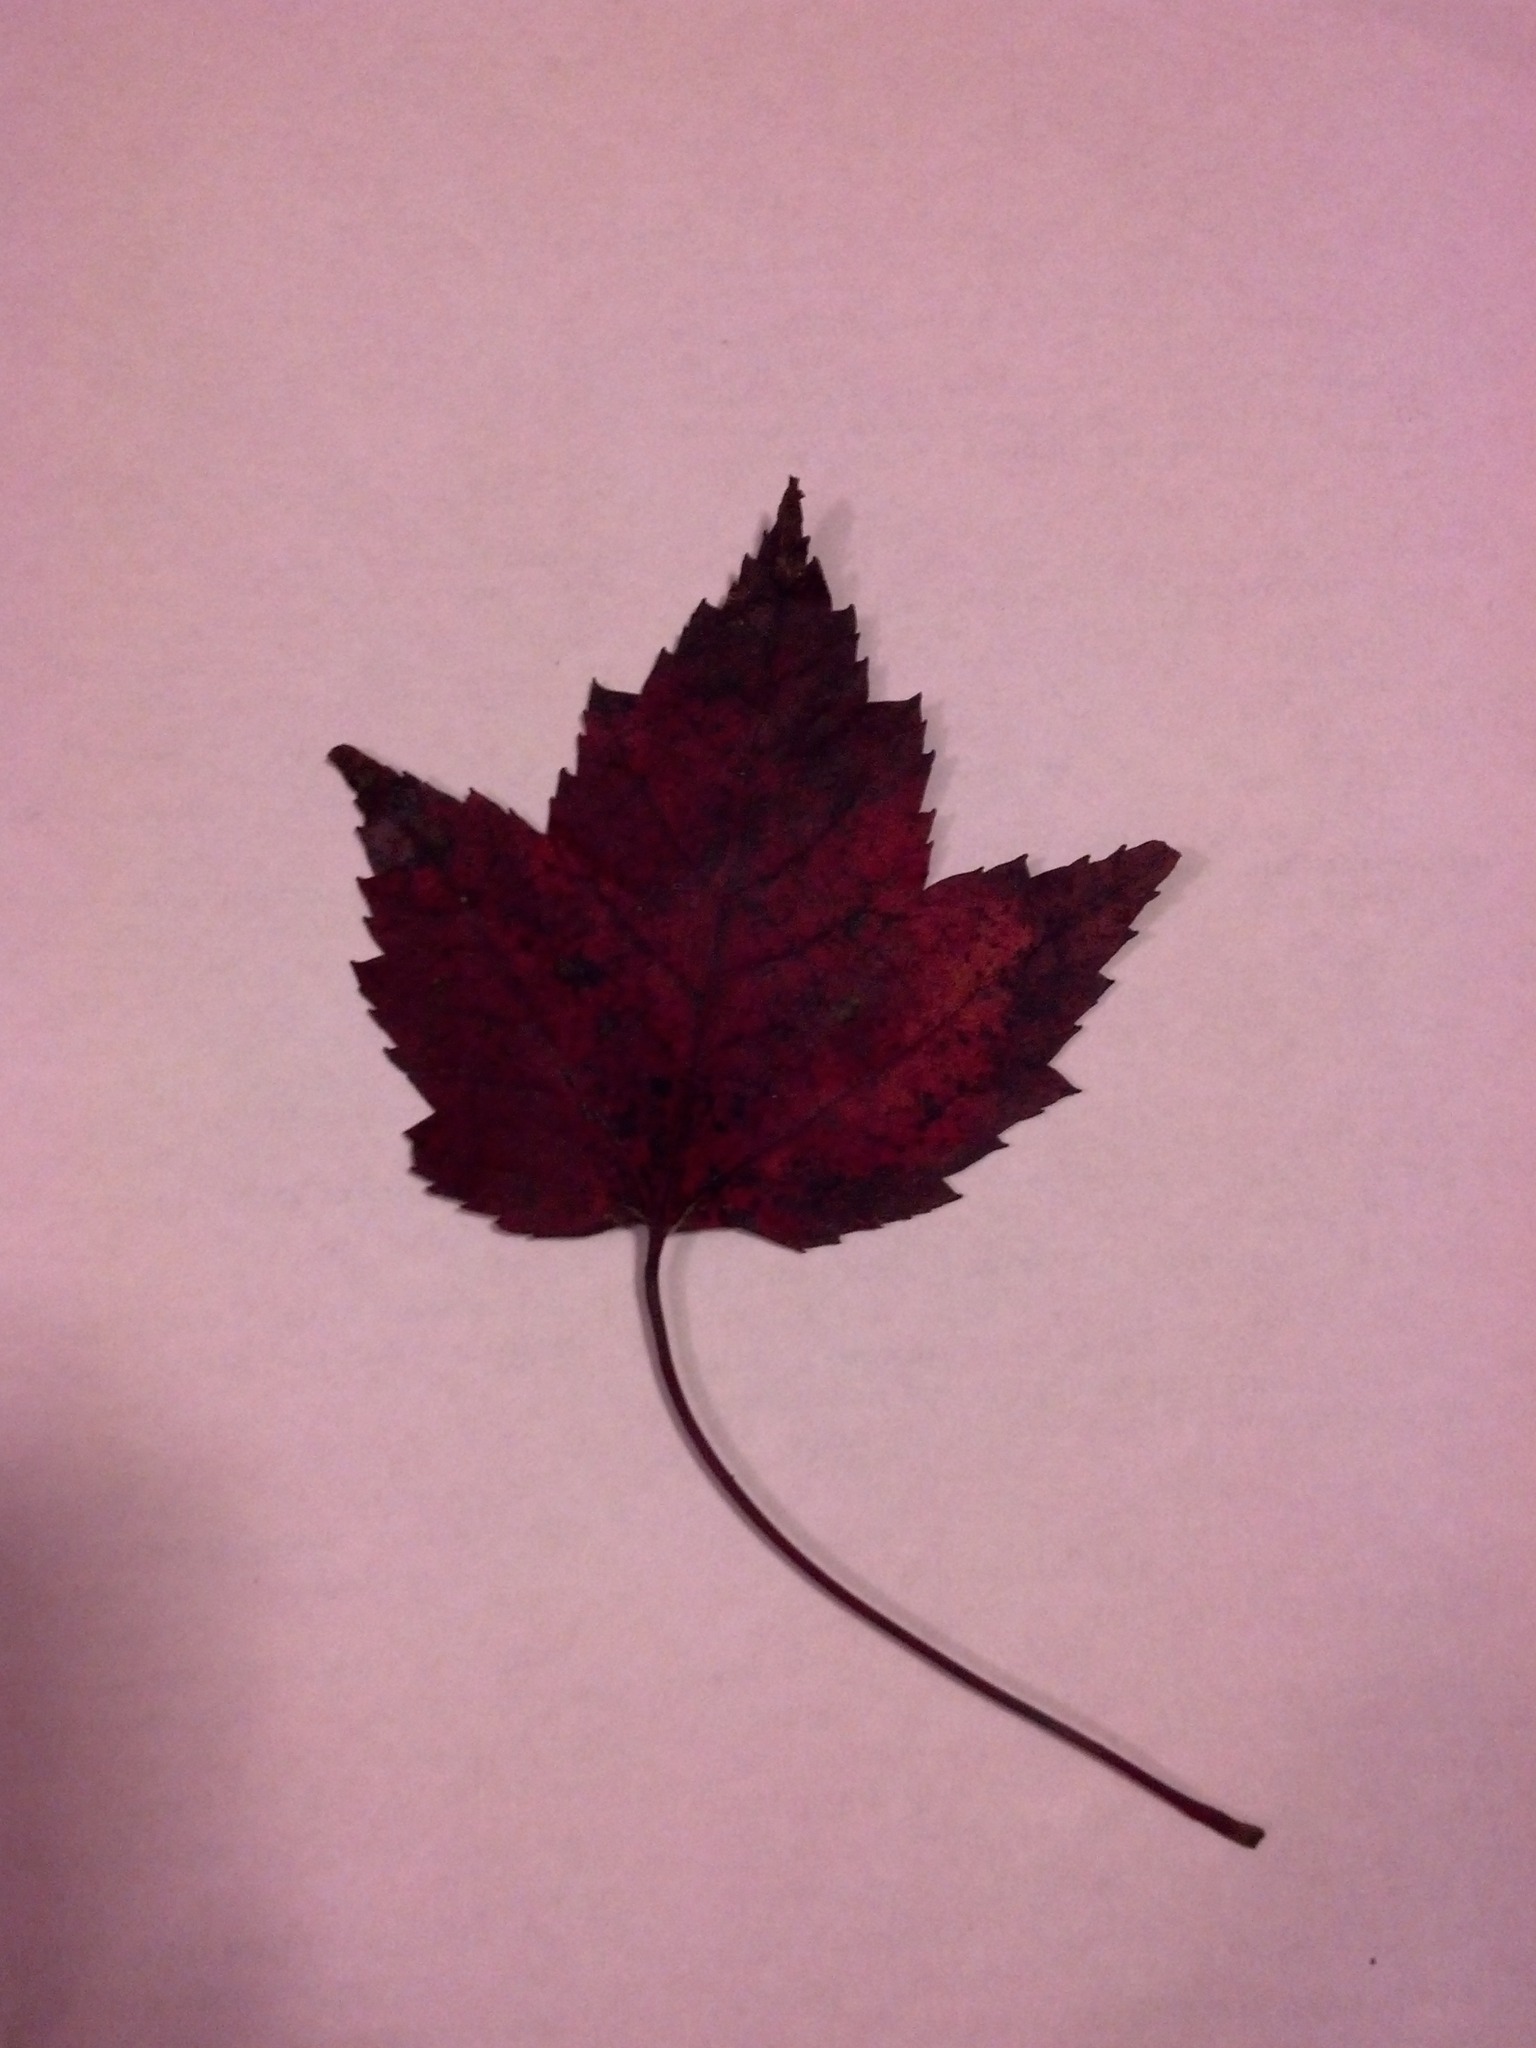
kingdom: Plantae
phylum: Tracheophyta
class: Magnoliopsida
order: Sapindales
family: Sapindaceae
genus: Acer
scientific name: Acer rubrum
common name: Red maple
